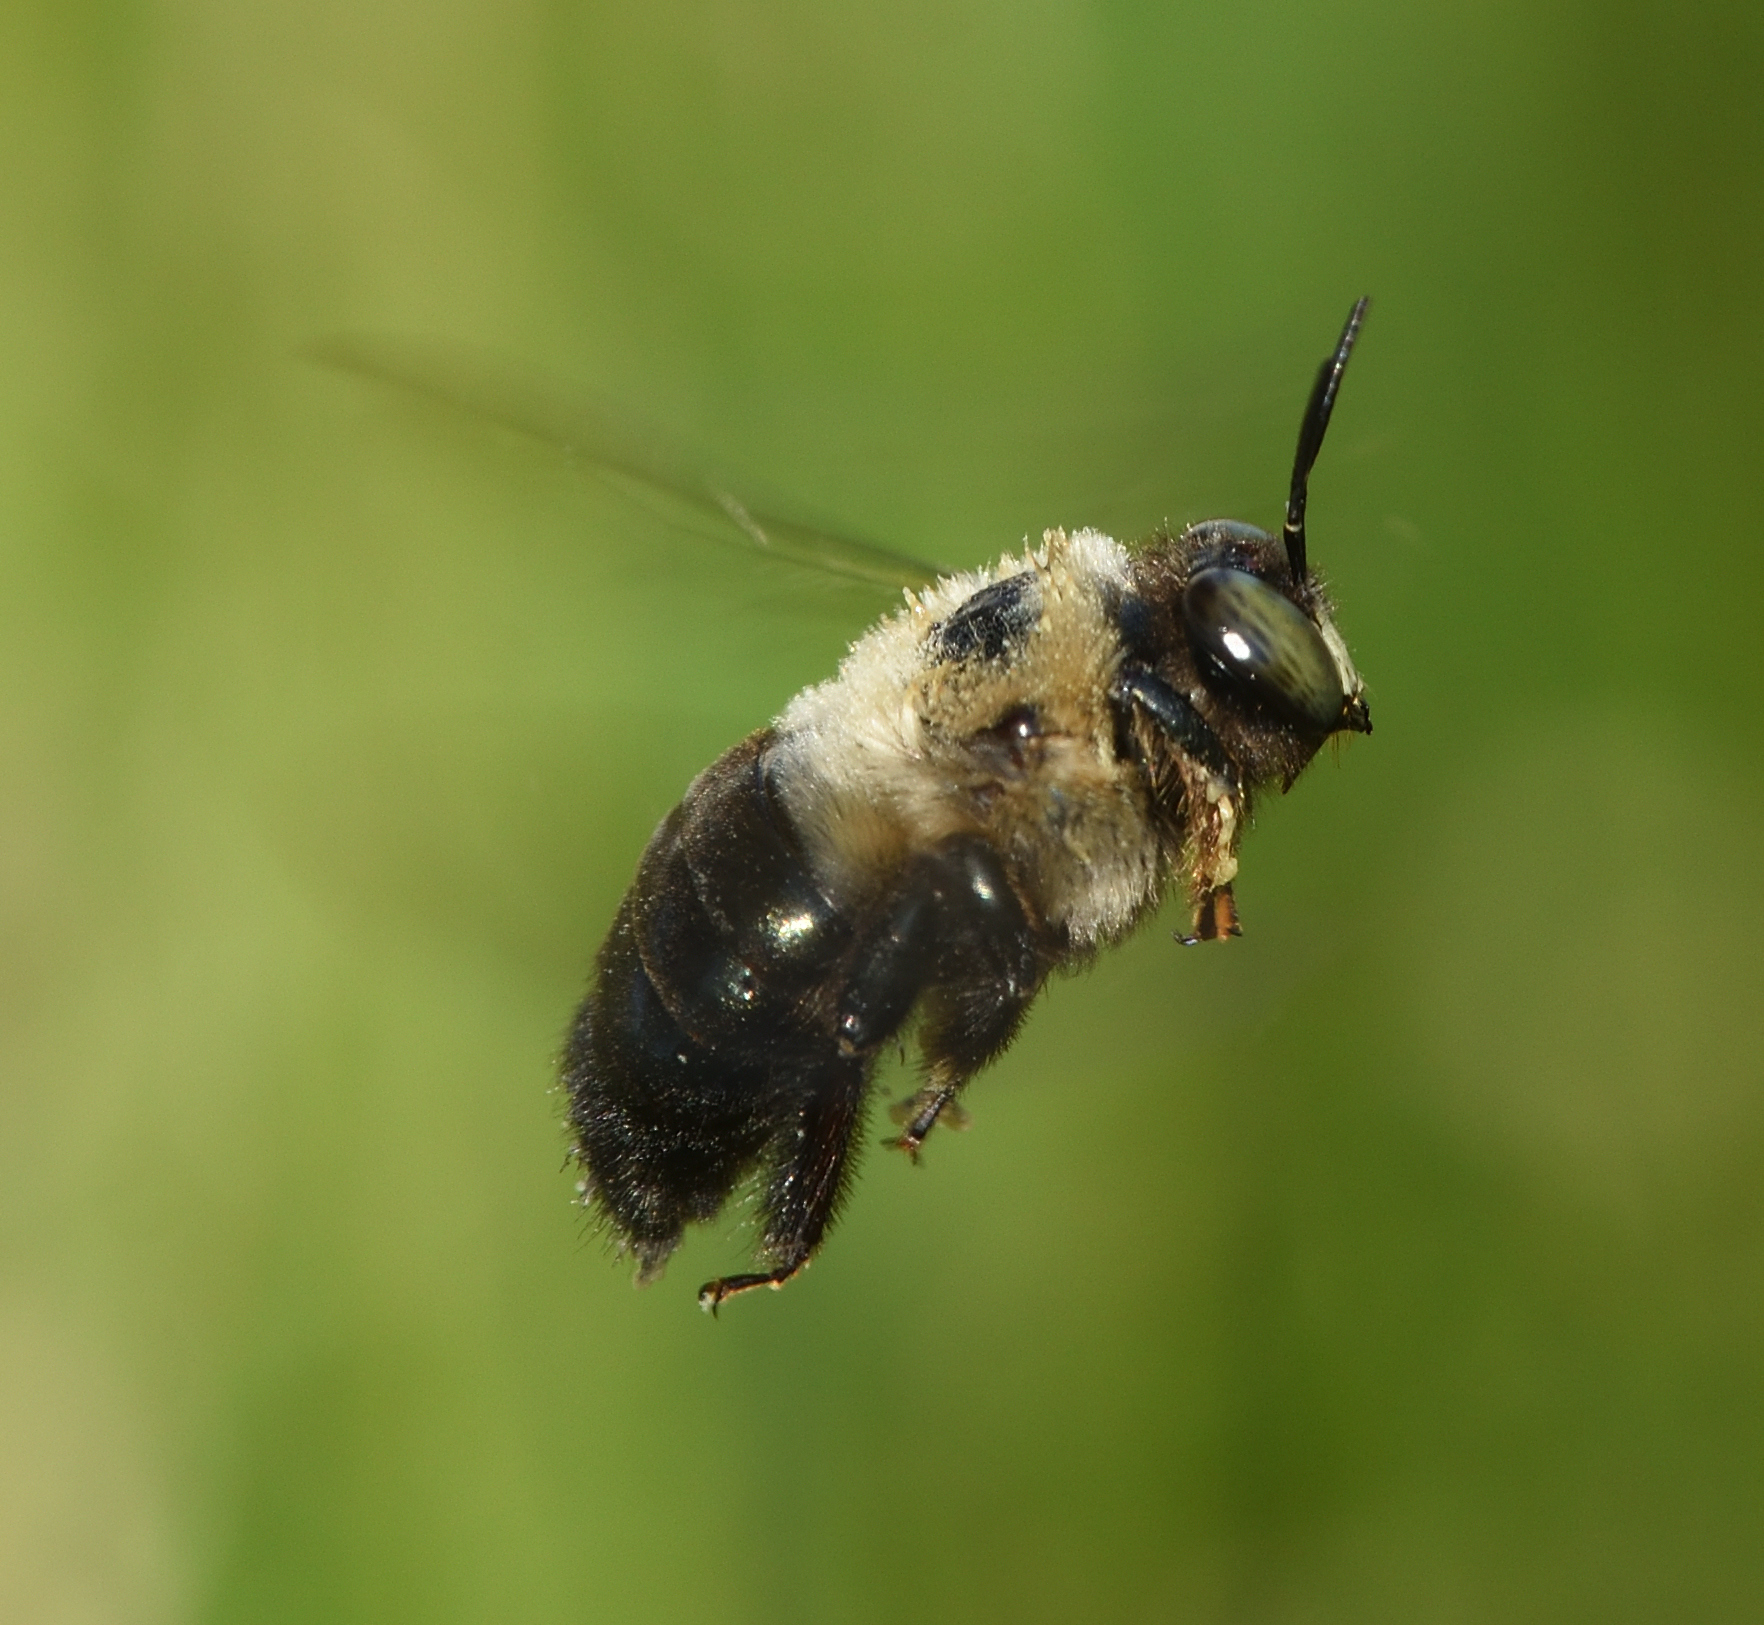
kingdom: Animalia
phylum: Arthropoda
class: Insecta
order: Hymenoptera
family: Apidae
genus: Xylocopa
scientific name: Xylocopa virginica
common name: Carpenter bee
